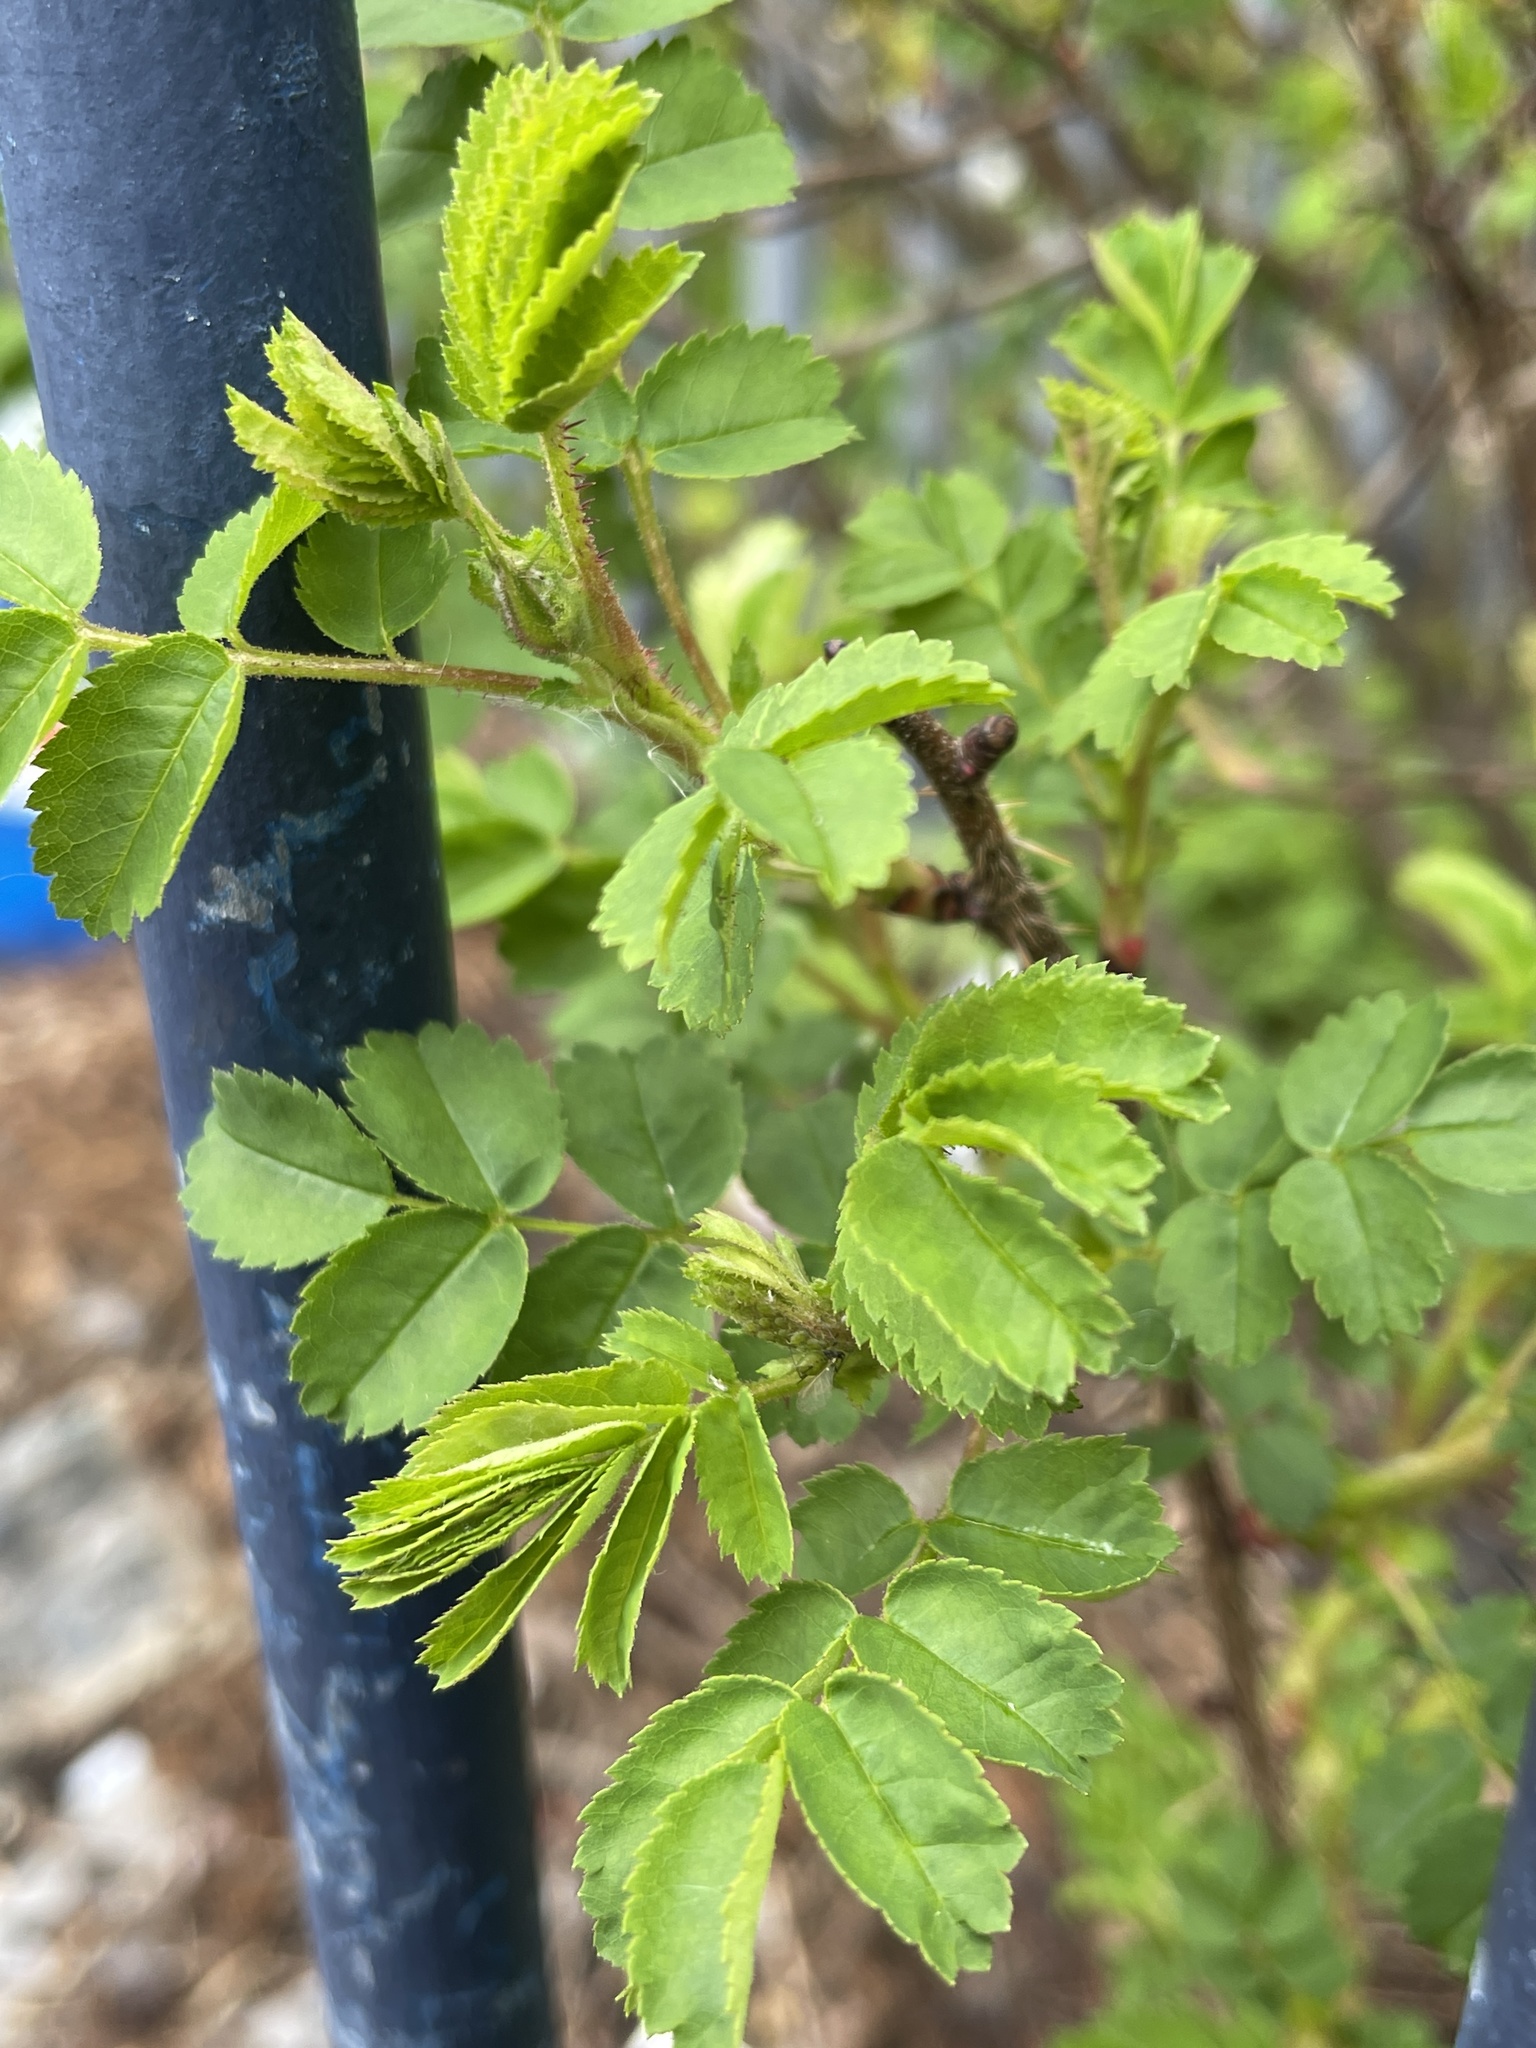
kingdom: Plantae
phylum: Tracheophyta
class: Magnoliopsida
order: Rosales
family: Rosaceae
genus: Rosa
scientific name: Rosa spinosissima
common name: Burnet rose
